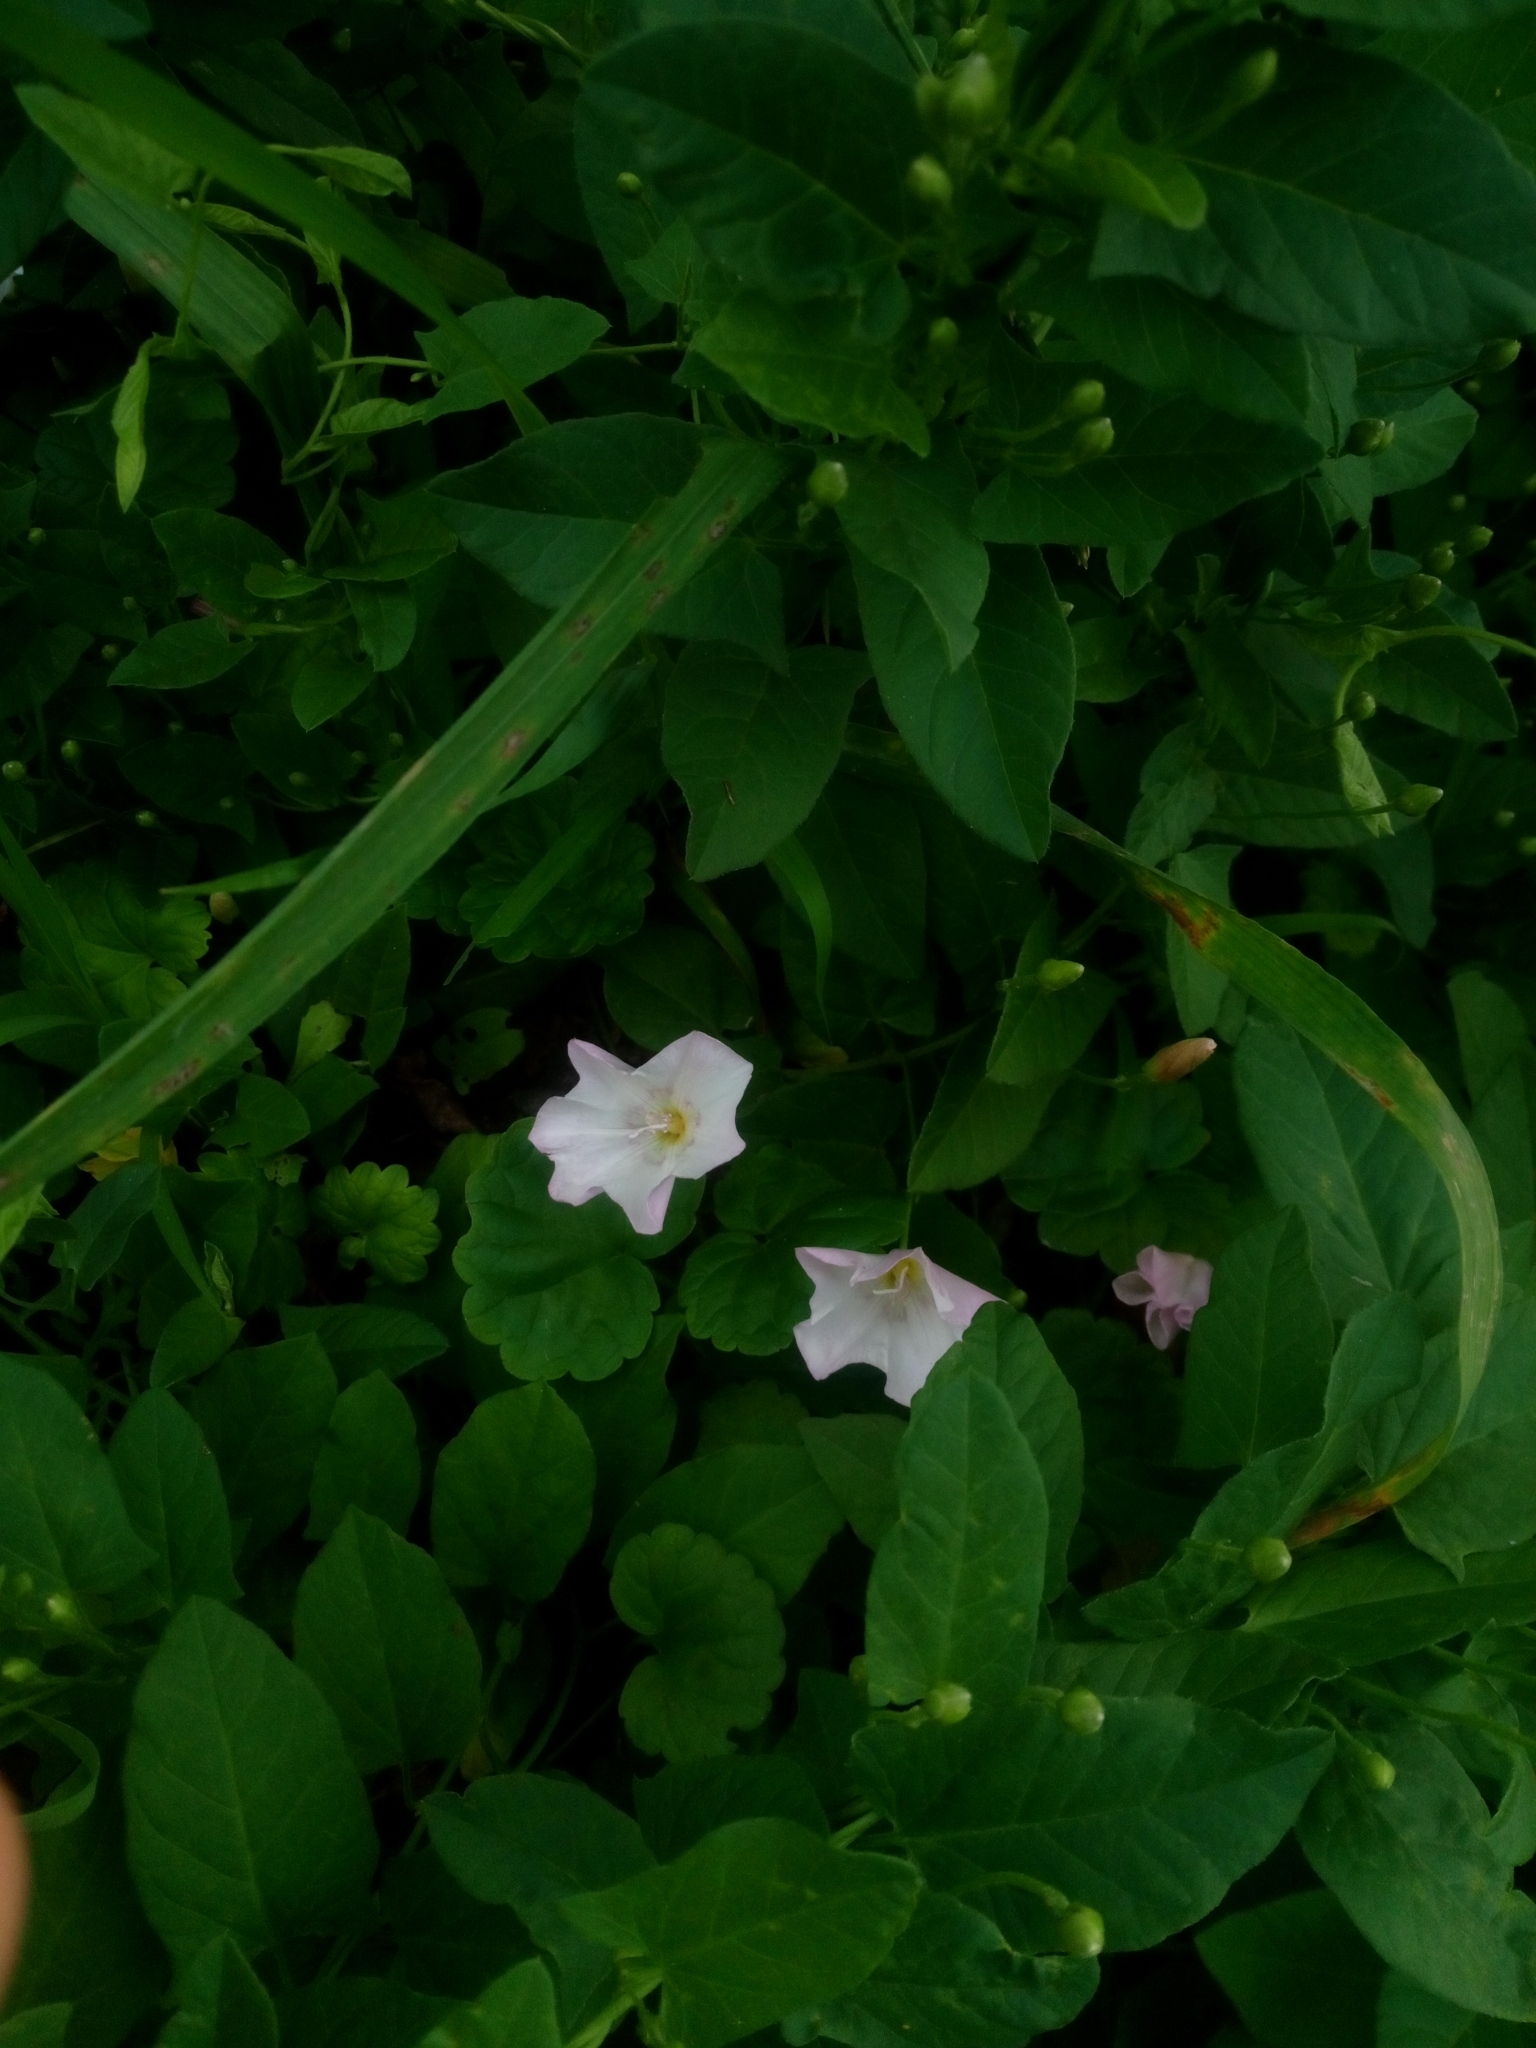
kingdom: Plantae
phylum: Tracheophyta
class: Magnoliopsida
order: Solanales
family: Convolvulaceae
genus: Convolvulus
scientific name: Convolvulus arvensis
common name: Field bindweed
